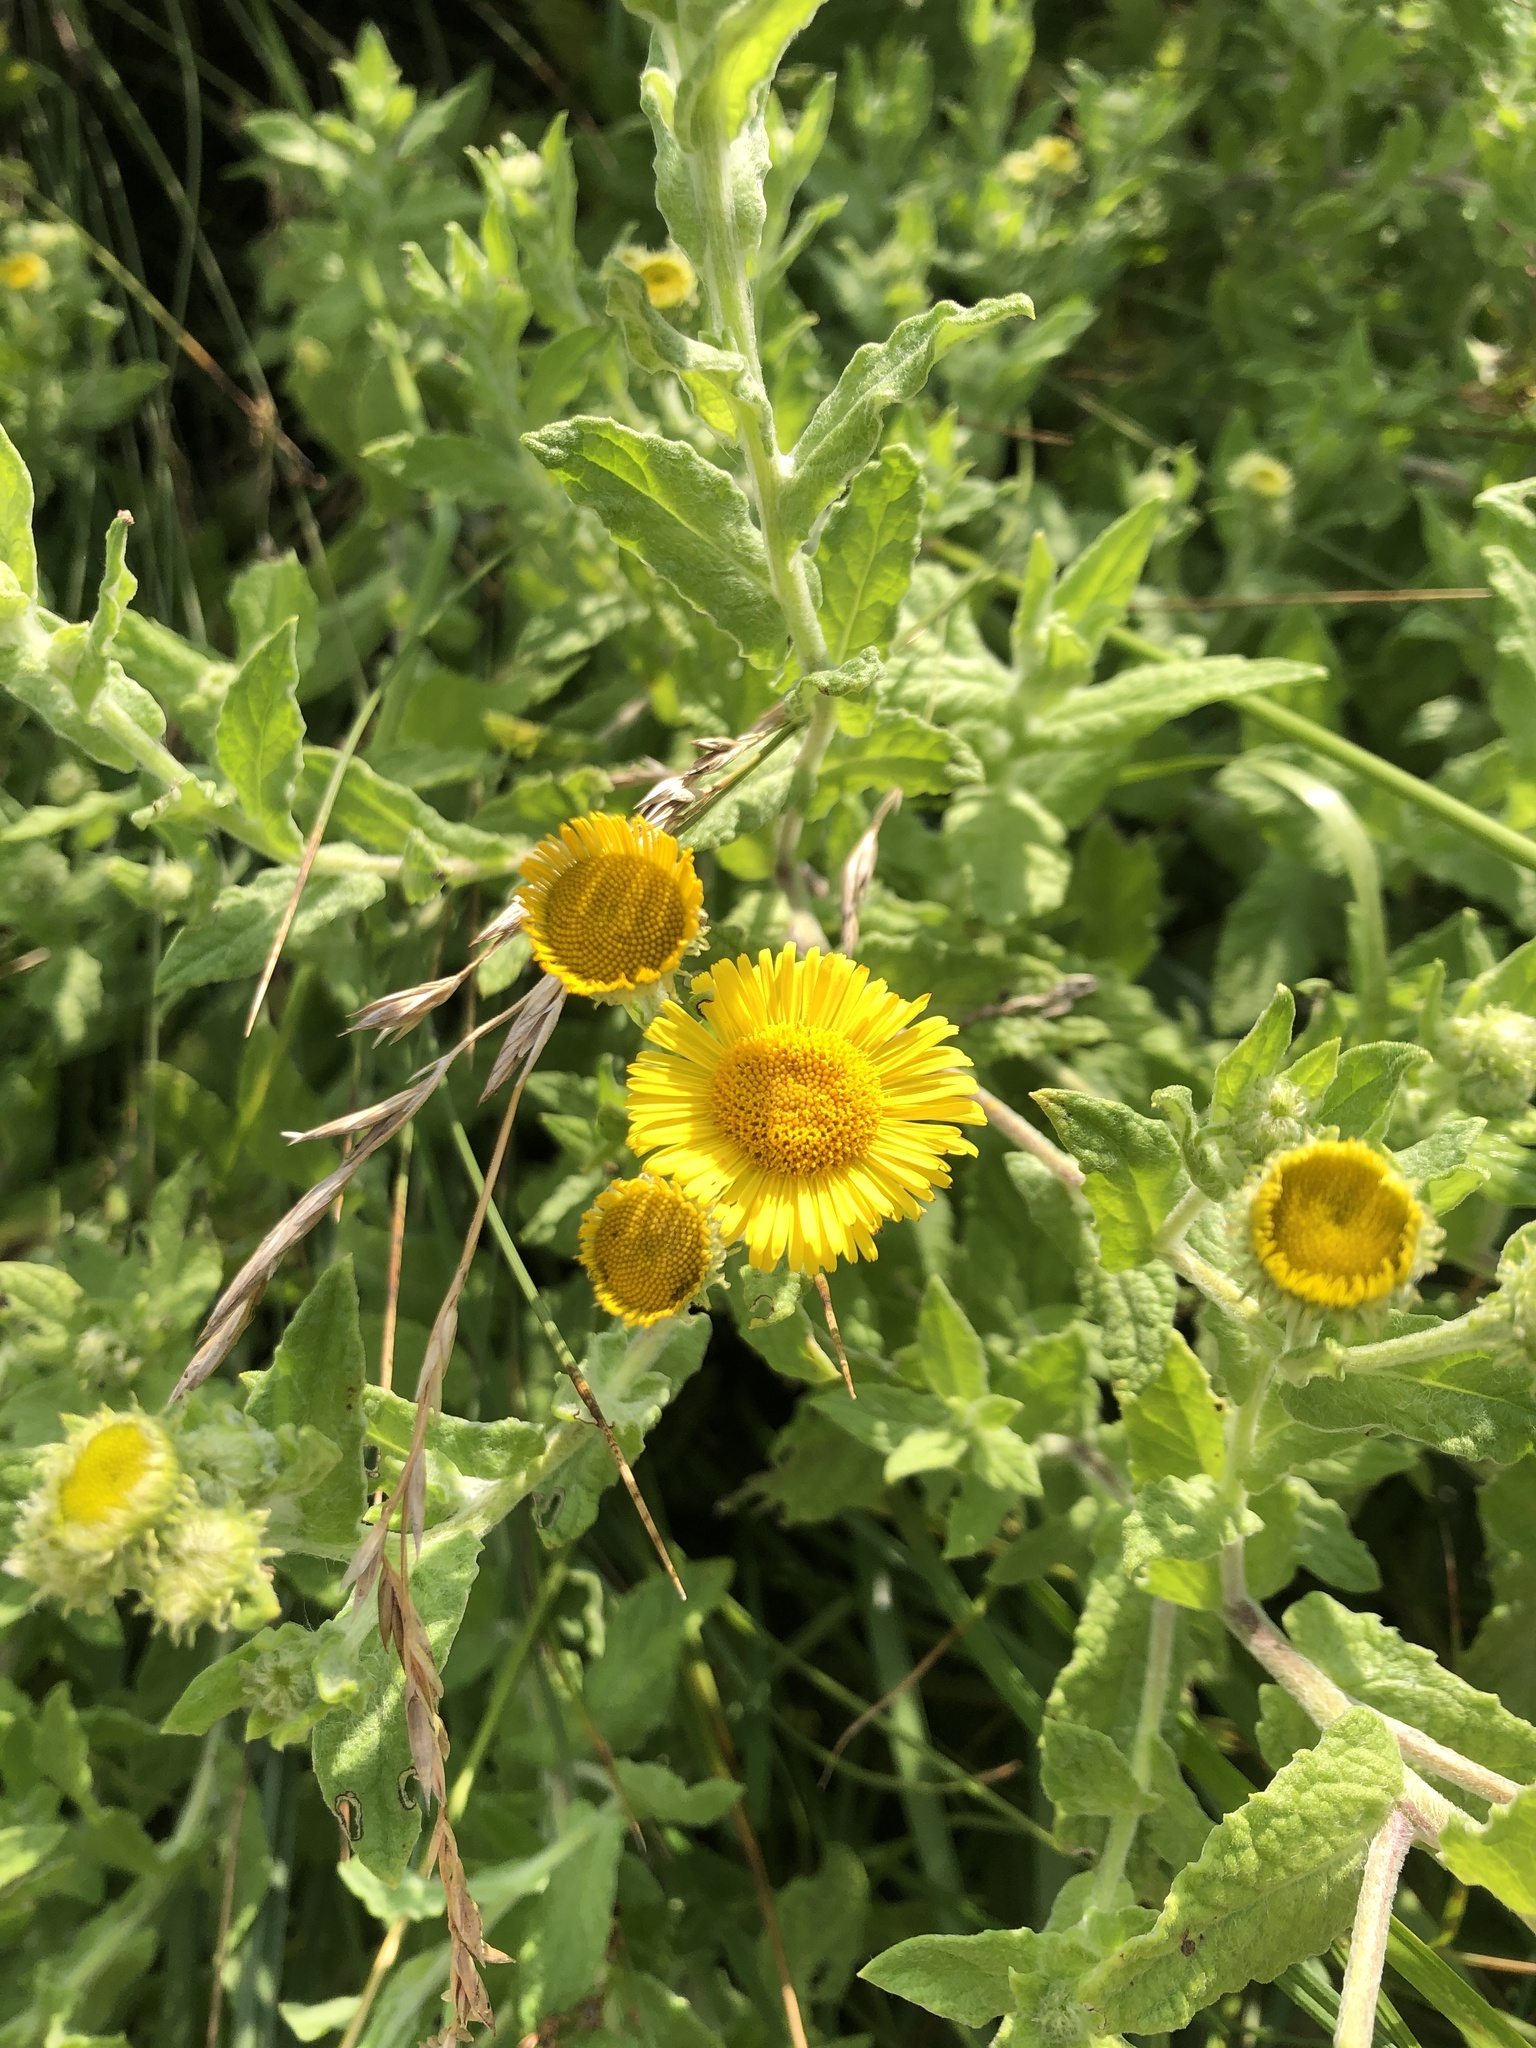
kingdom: Plantae
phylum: Tracheophyta
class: Magnoliopsida
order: Asterales
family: Asteraceae
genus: Pulicaria
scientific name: Pulicaria dysenterica
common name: Common fleabane
